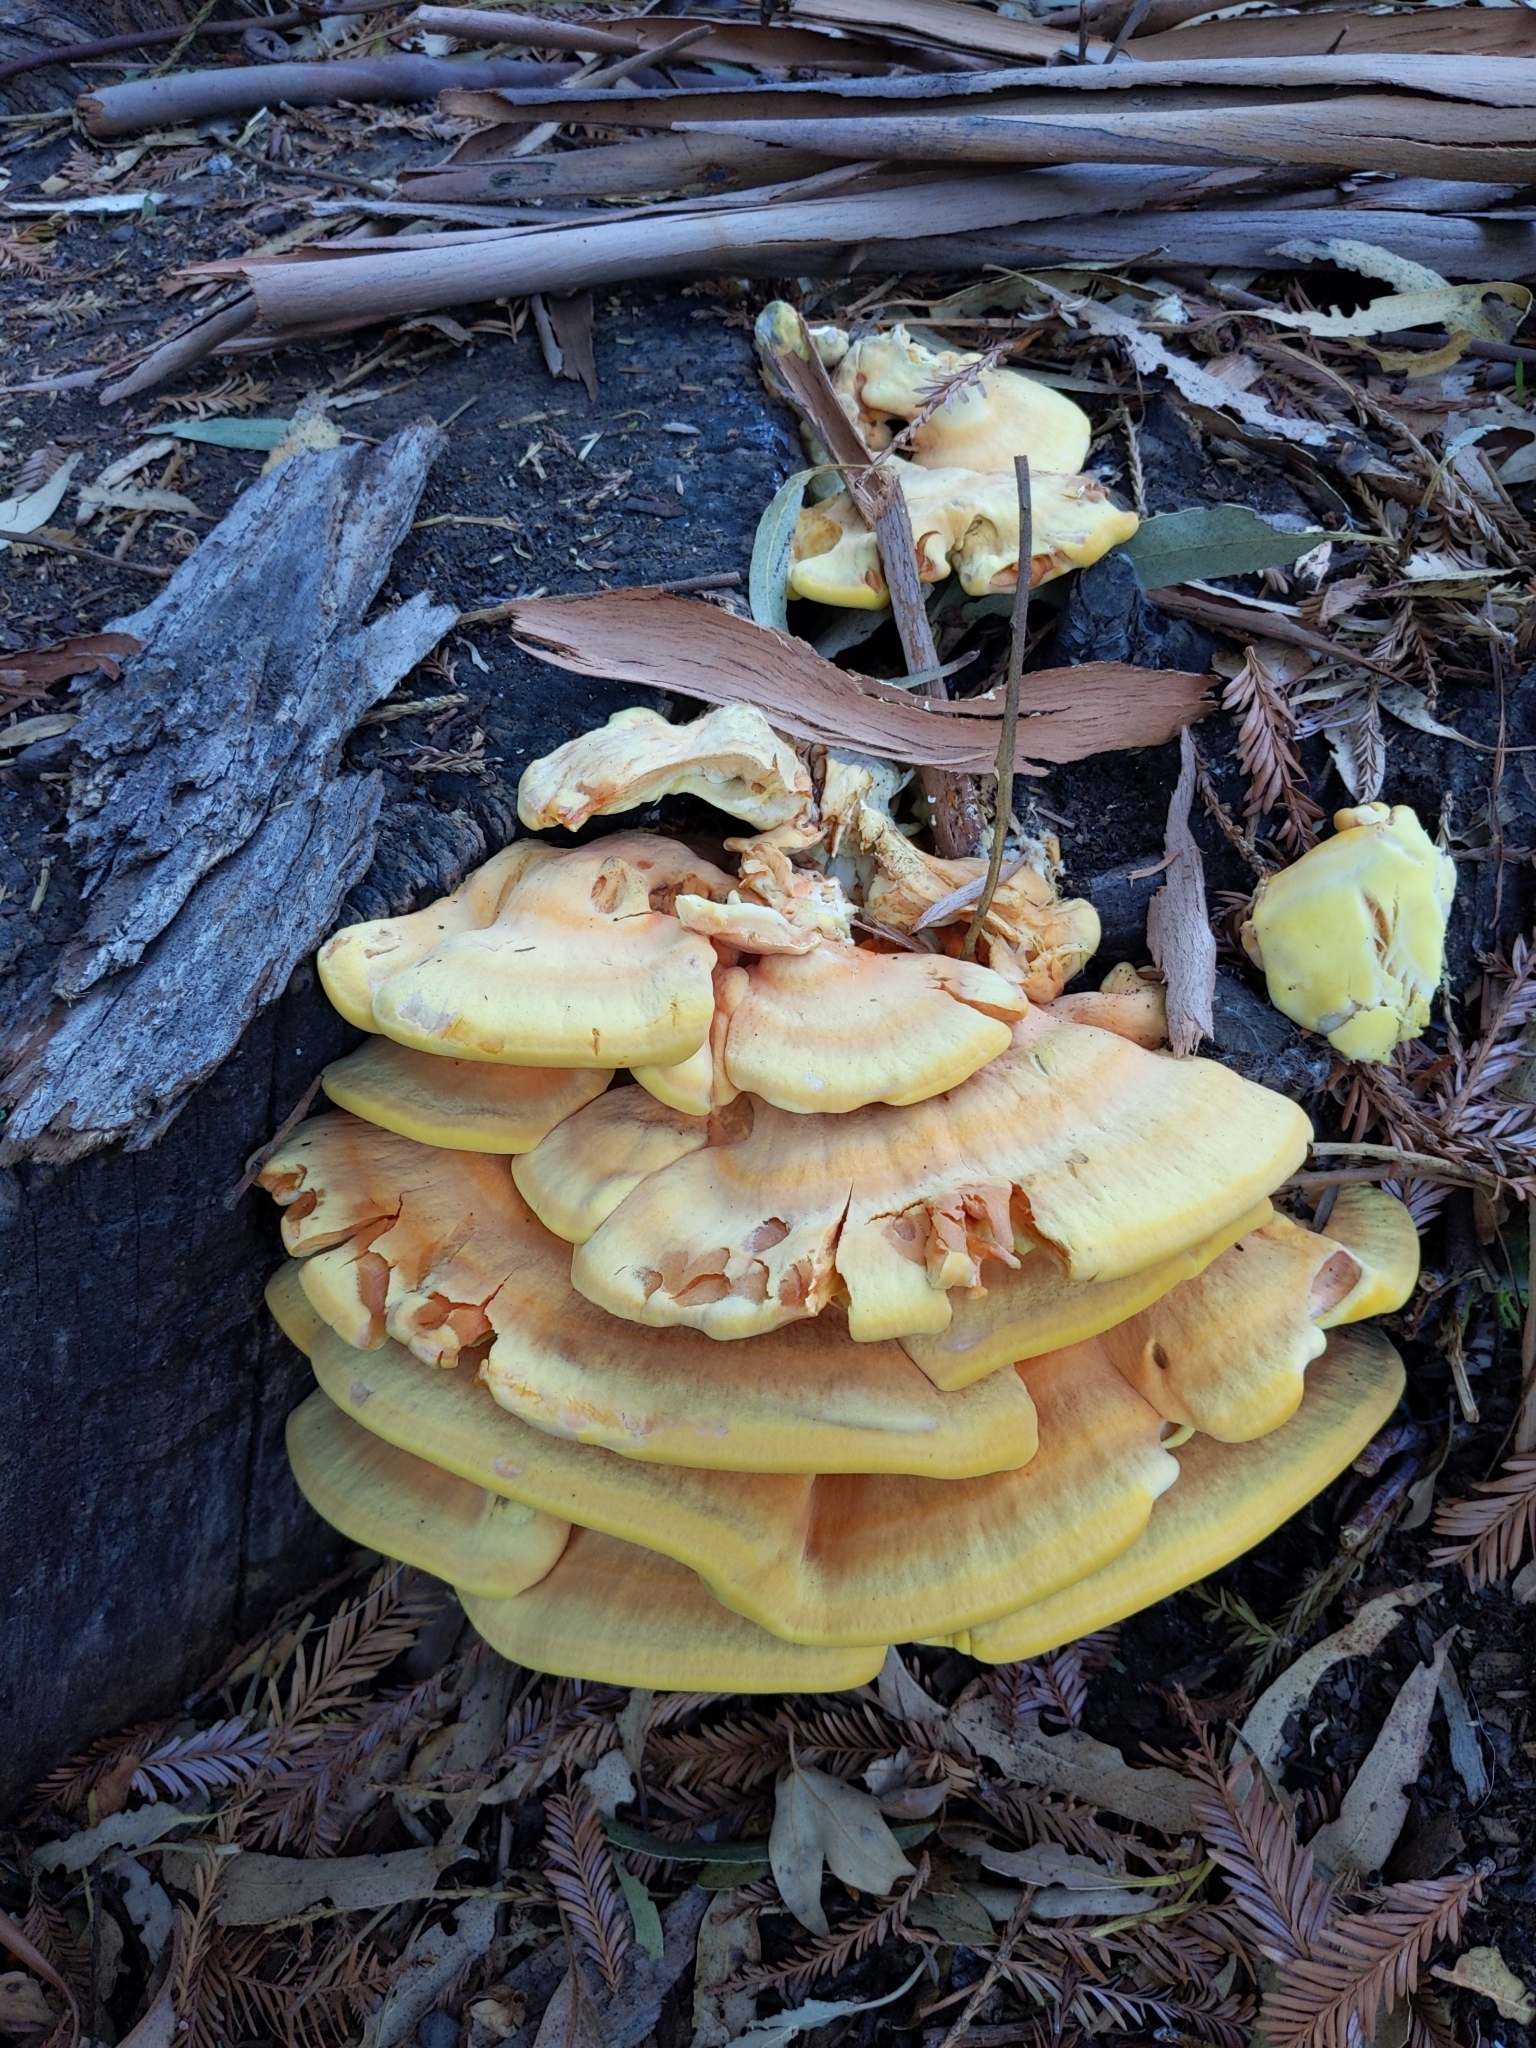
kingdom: Fungi
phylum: Basidiomycota
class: Agaricomycetes
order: Polyporales
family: Laetiporaceae
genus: Laetiporus
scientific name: Laetiporus gilbertsonii
